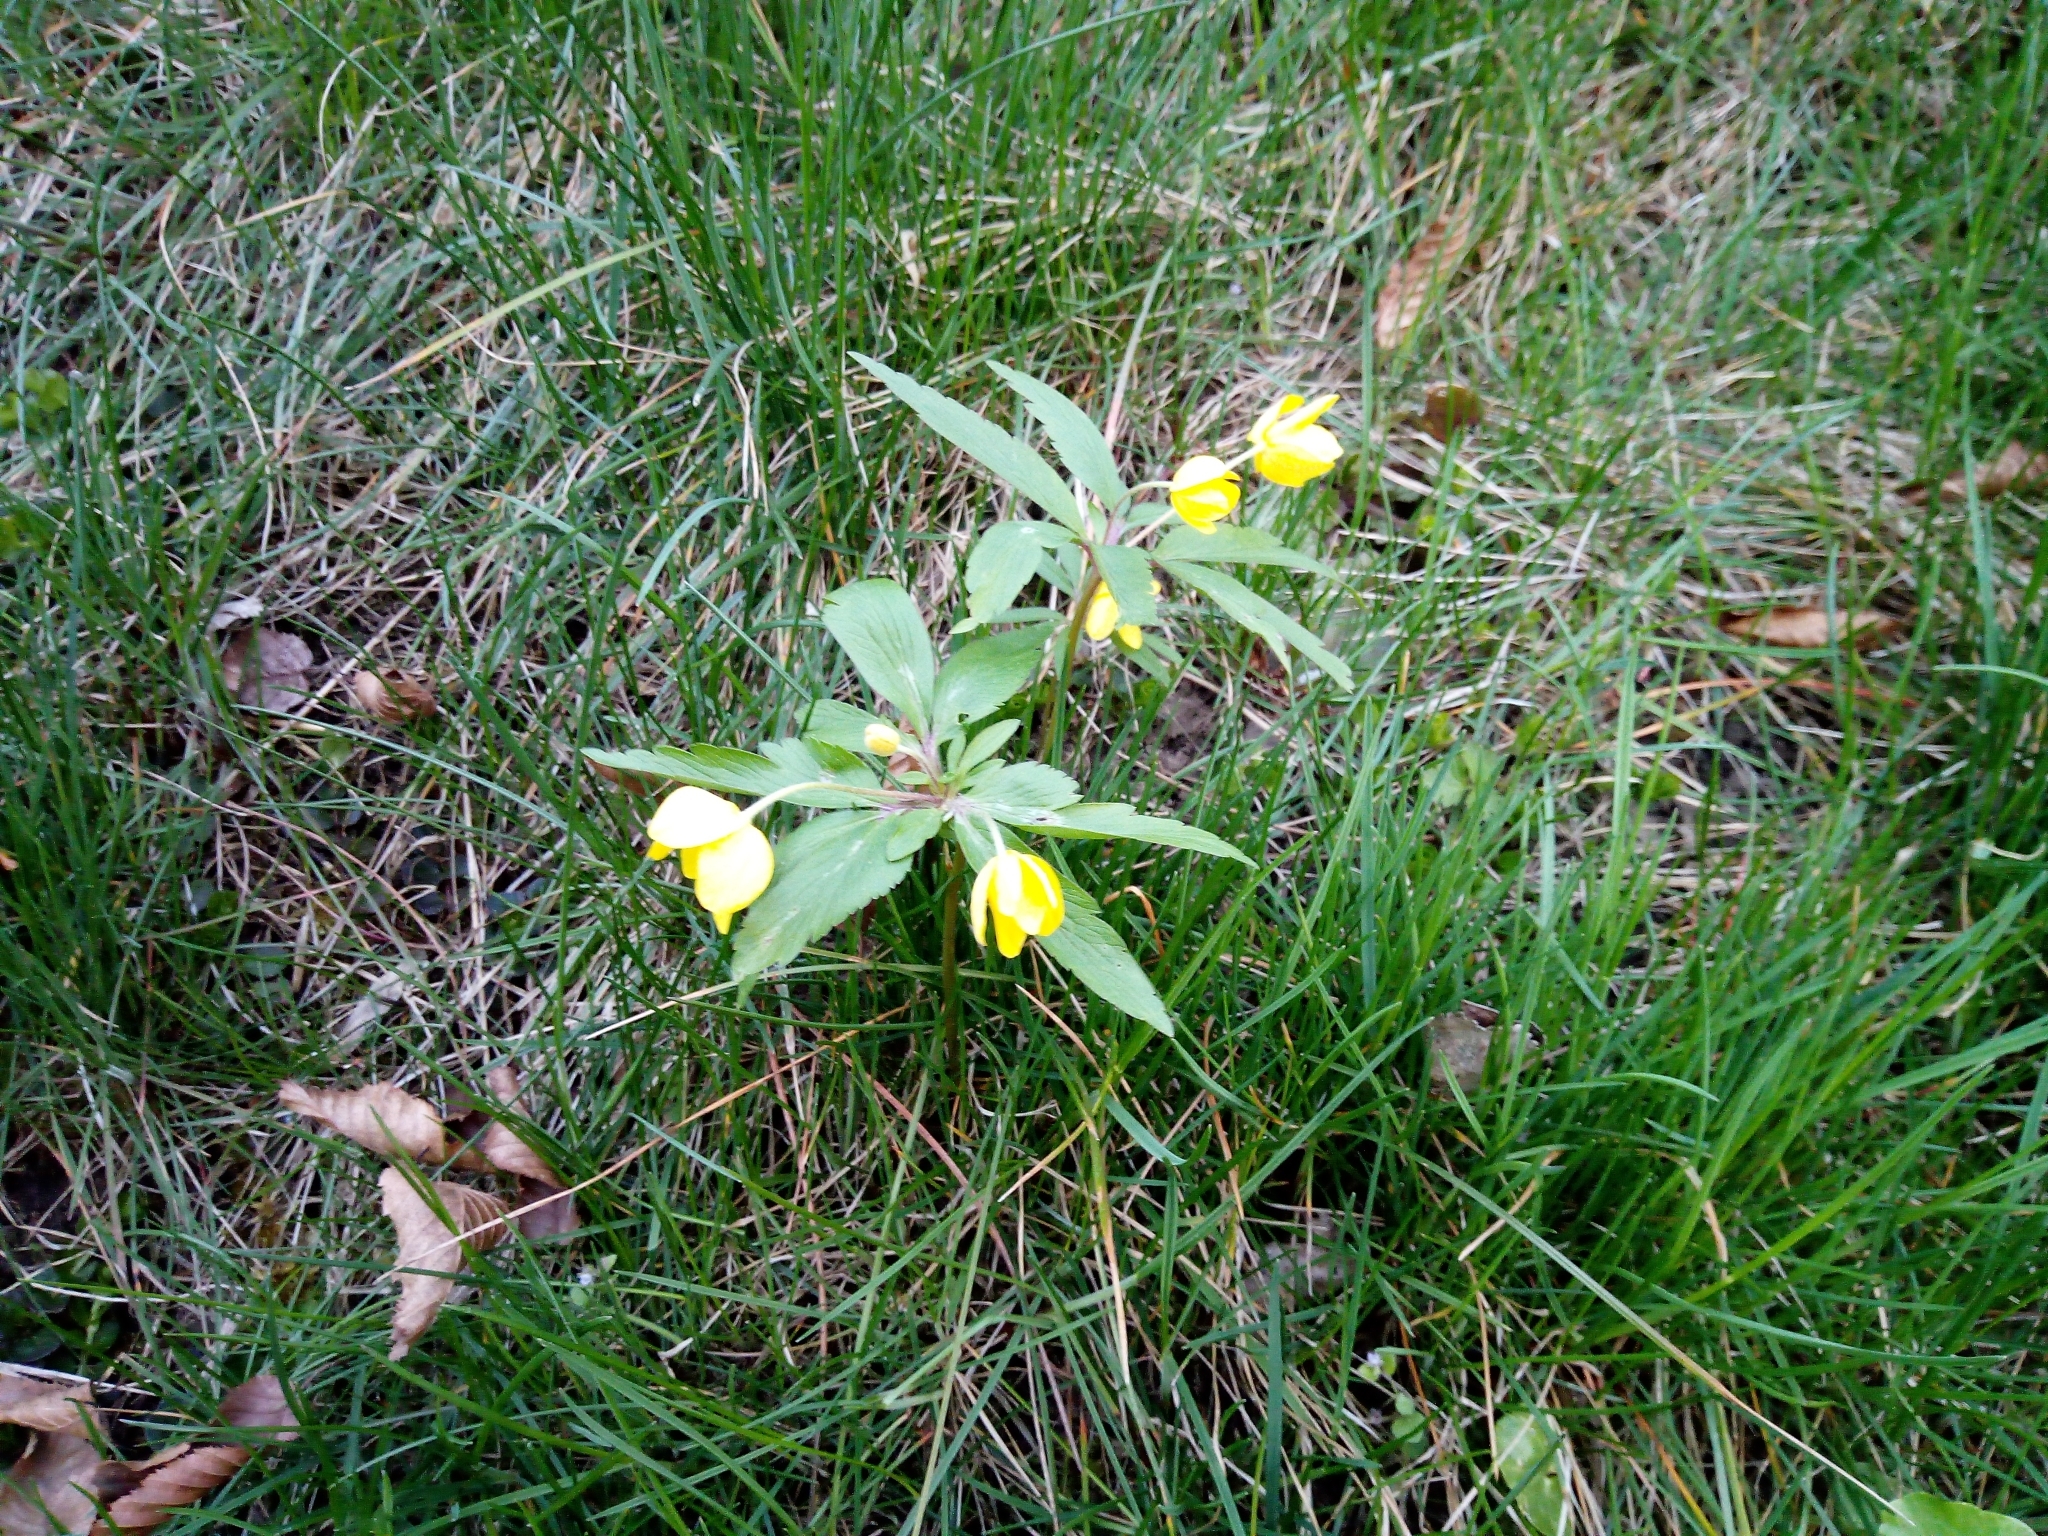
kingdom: Plantae
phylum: Tracheophyta
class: Magnoliopsida
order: Ranunculales
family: Ranunculaceae
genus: Anemone
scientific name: Anemone ranunculoides
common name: Yellow anemone
